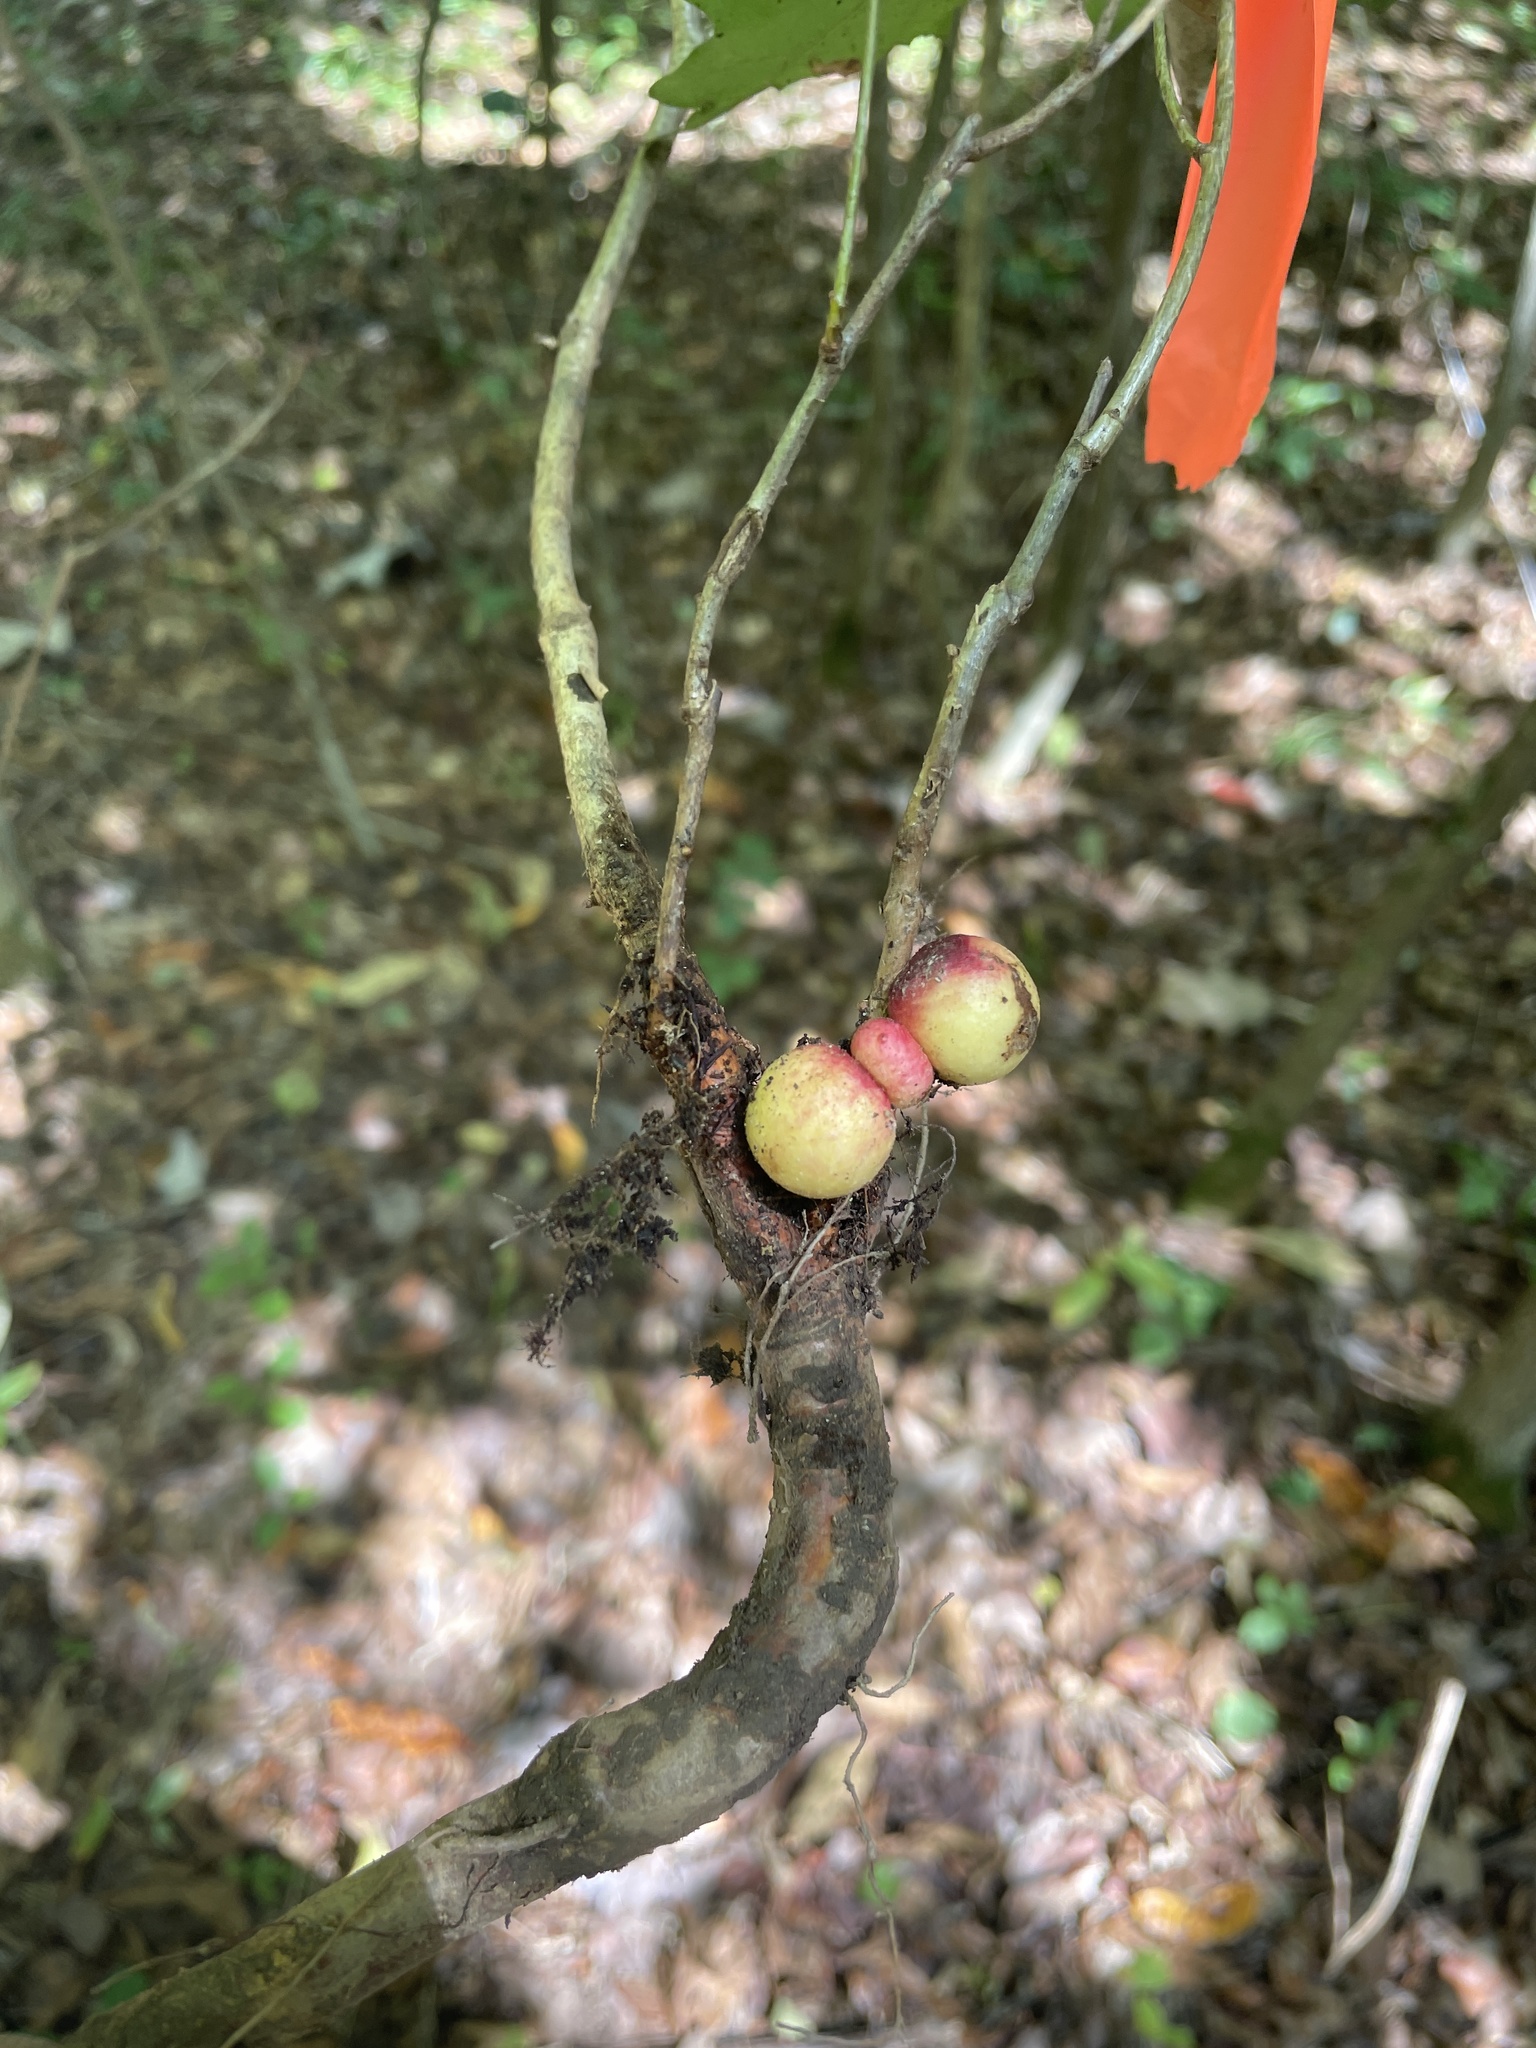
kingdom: Animalia
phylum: Arthropoda
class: Insecta
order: Hymenoptera
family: Cynipidae
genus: Disholcaspis
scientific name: Disholcaspis
